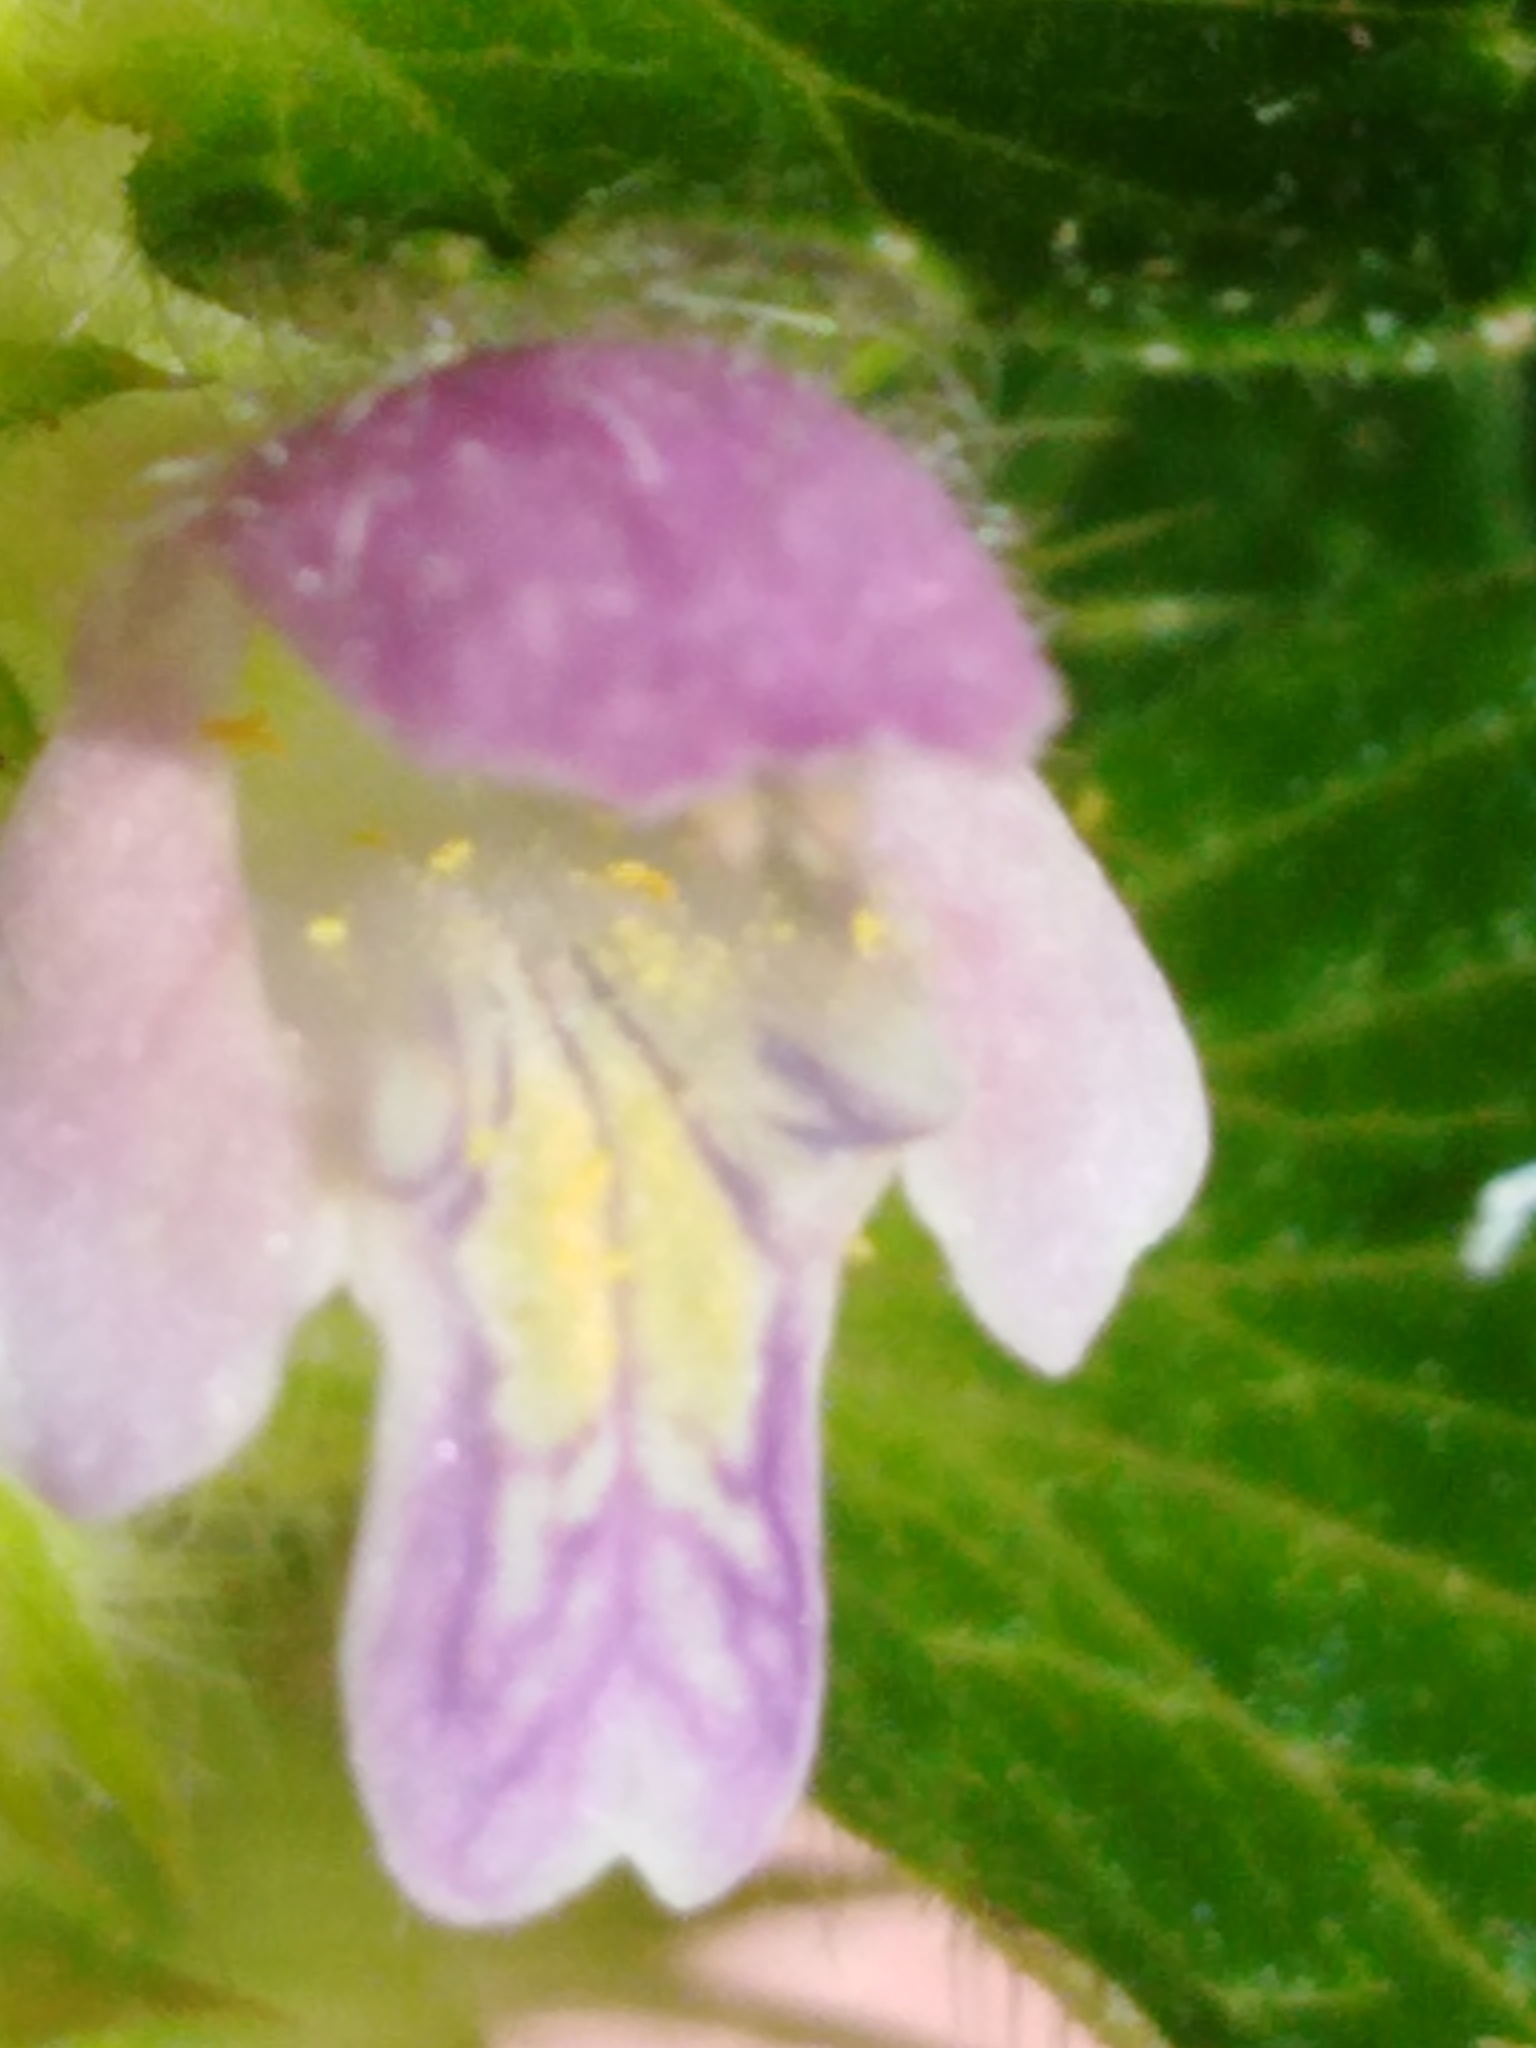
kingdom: Plantae
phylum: Tracheophyta
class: Magnoliopsida
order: Lamiales
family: Lamiaceae
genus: Galeopsis
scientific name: Galeopsis bifida
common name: Bifid hemp-nettle
